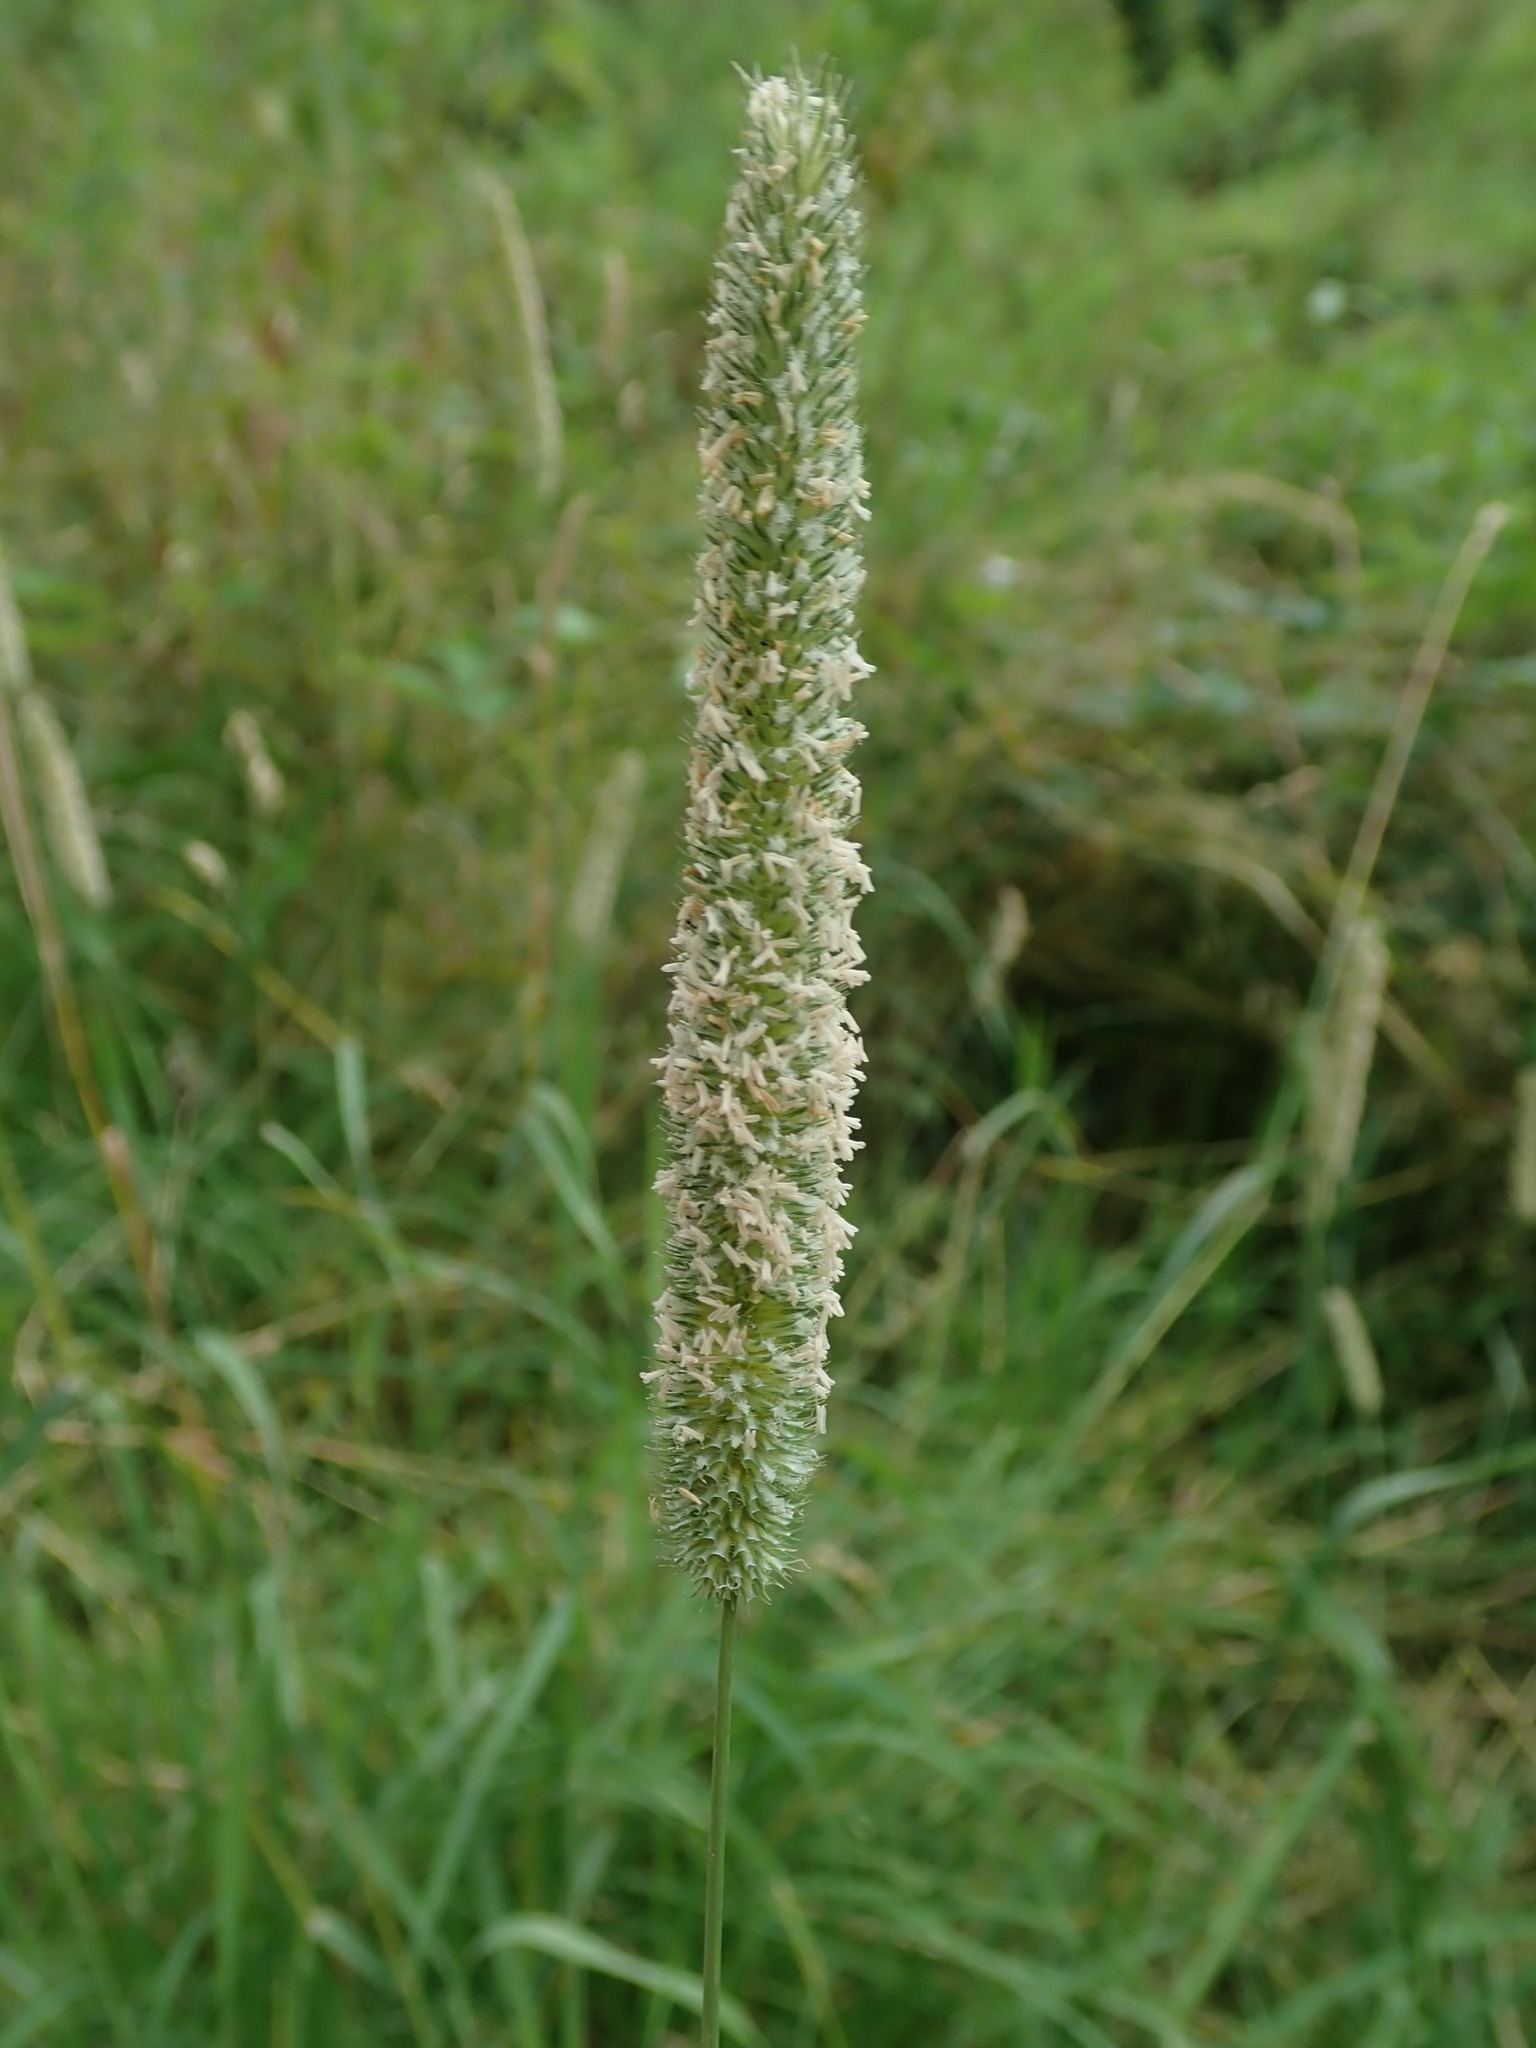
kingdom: Plantae
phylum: Tracheophyta
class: Liliopsida
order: Poales
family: Poaceae
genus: Phleum
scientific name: Phleum pratense
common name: Timothy grass
